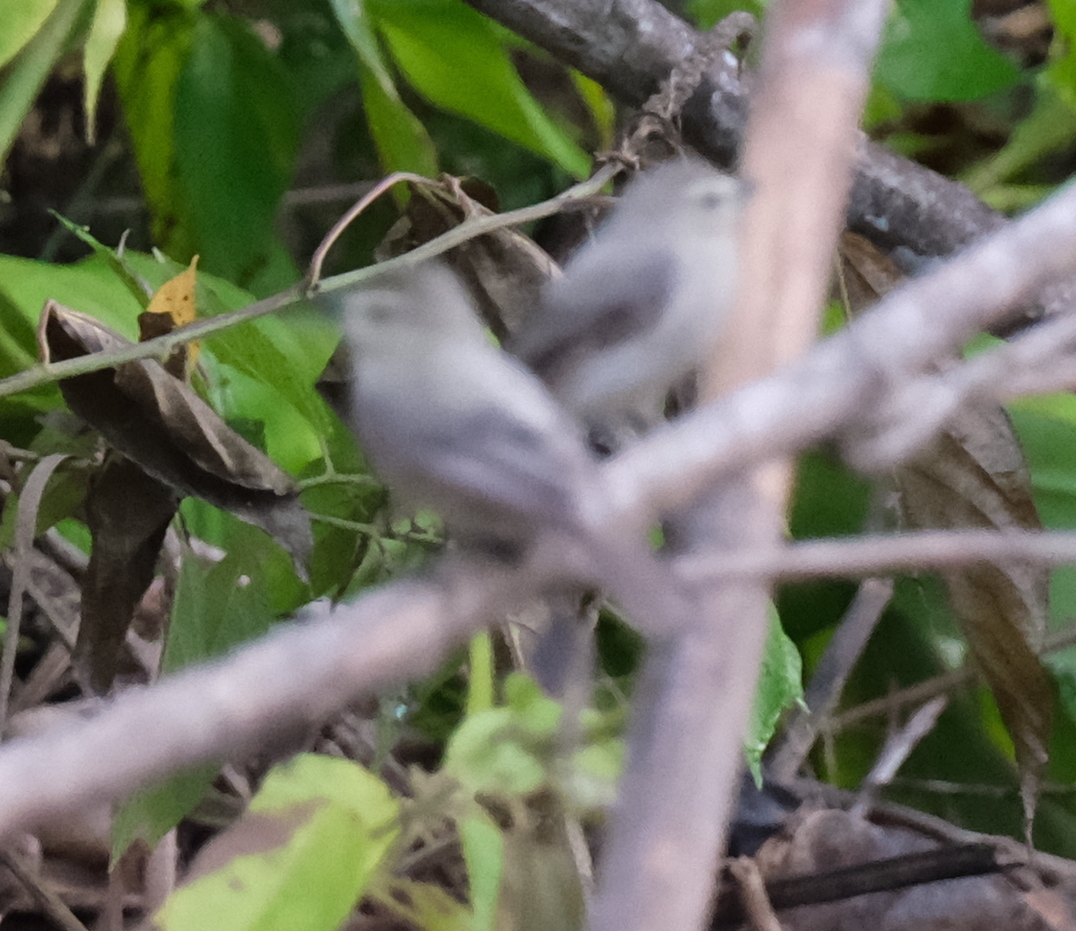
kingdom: Animalia
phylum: Chordata
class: Aves
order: Passeriformes
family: Tyrannidae
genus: Ochthornis
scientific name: Ochthornis littoralis
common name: Drab water tyrant
